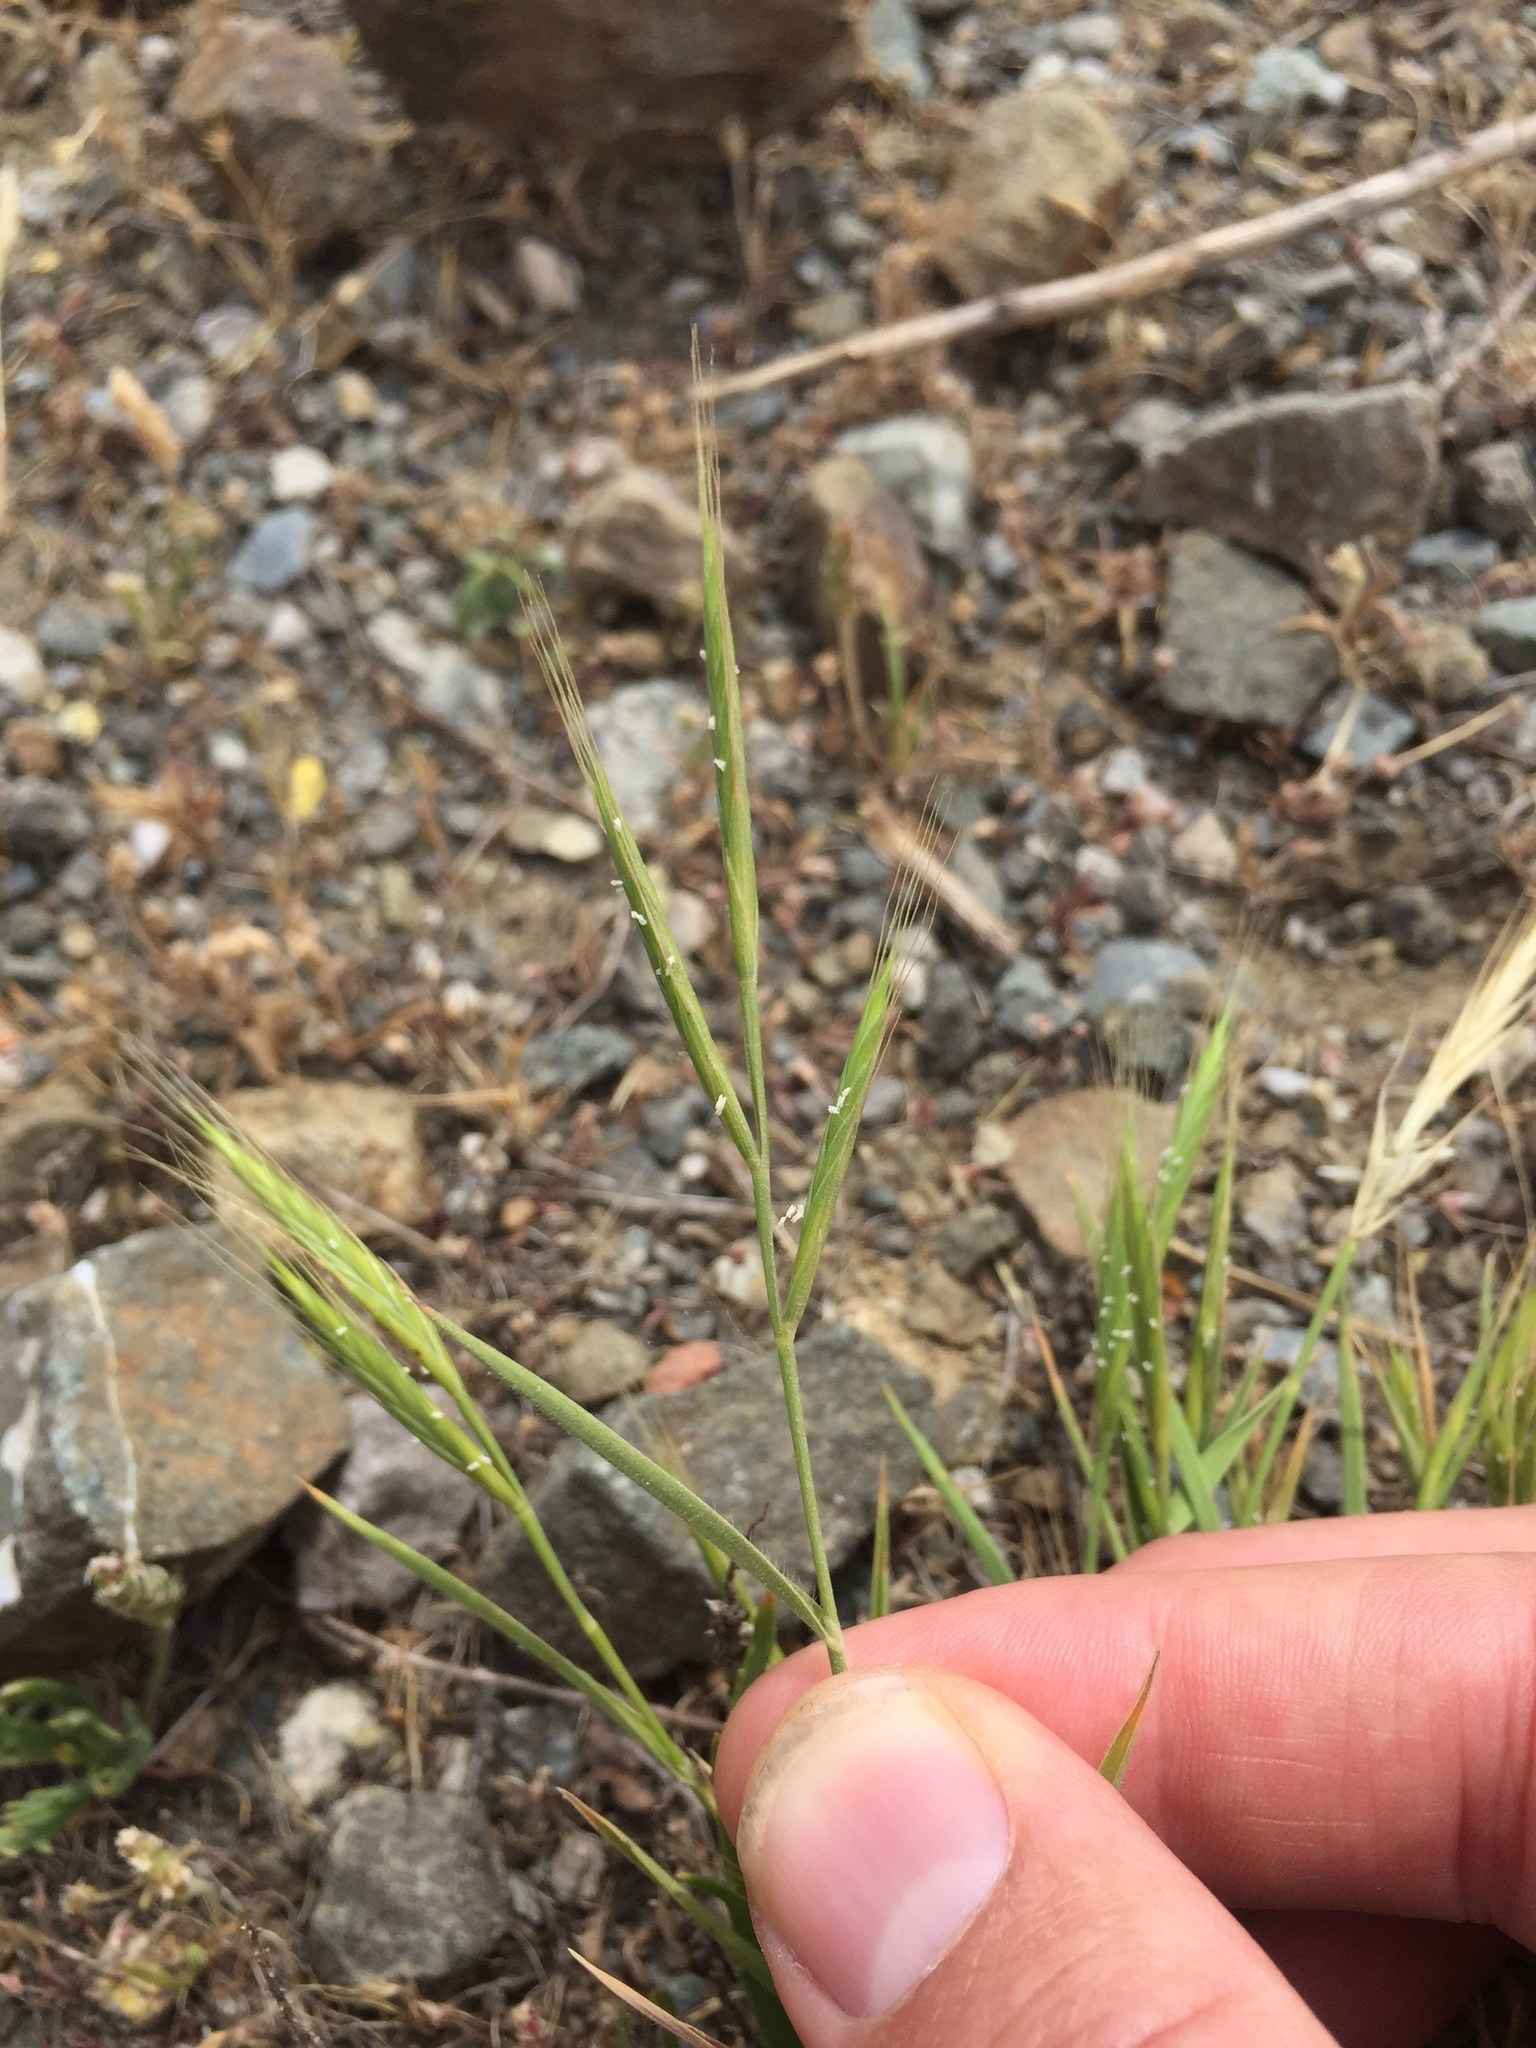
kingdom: Plantae
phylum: Tracheophyta
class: Liliopsida
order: Poales
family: Poaceae
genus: Brachypodium
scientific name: Brachypodium distachyon
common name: Stiff brome
